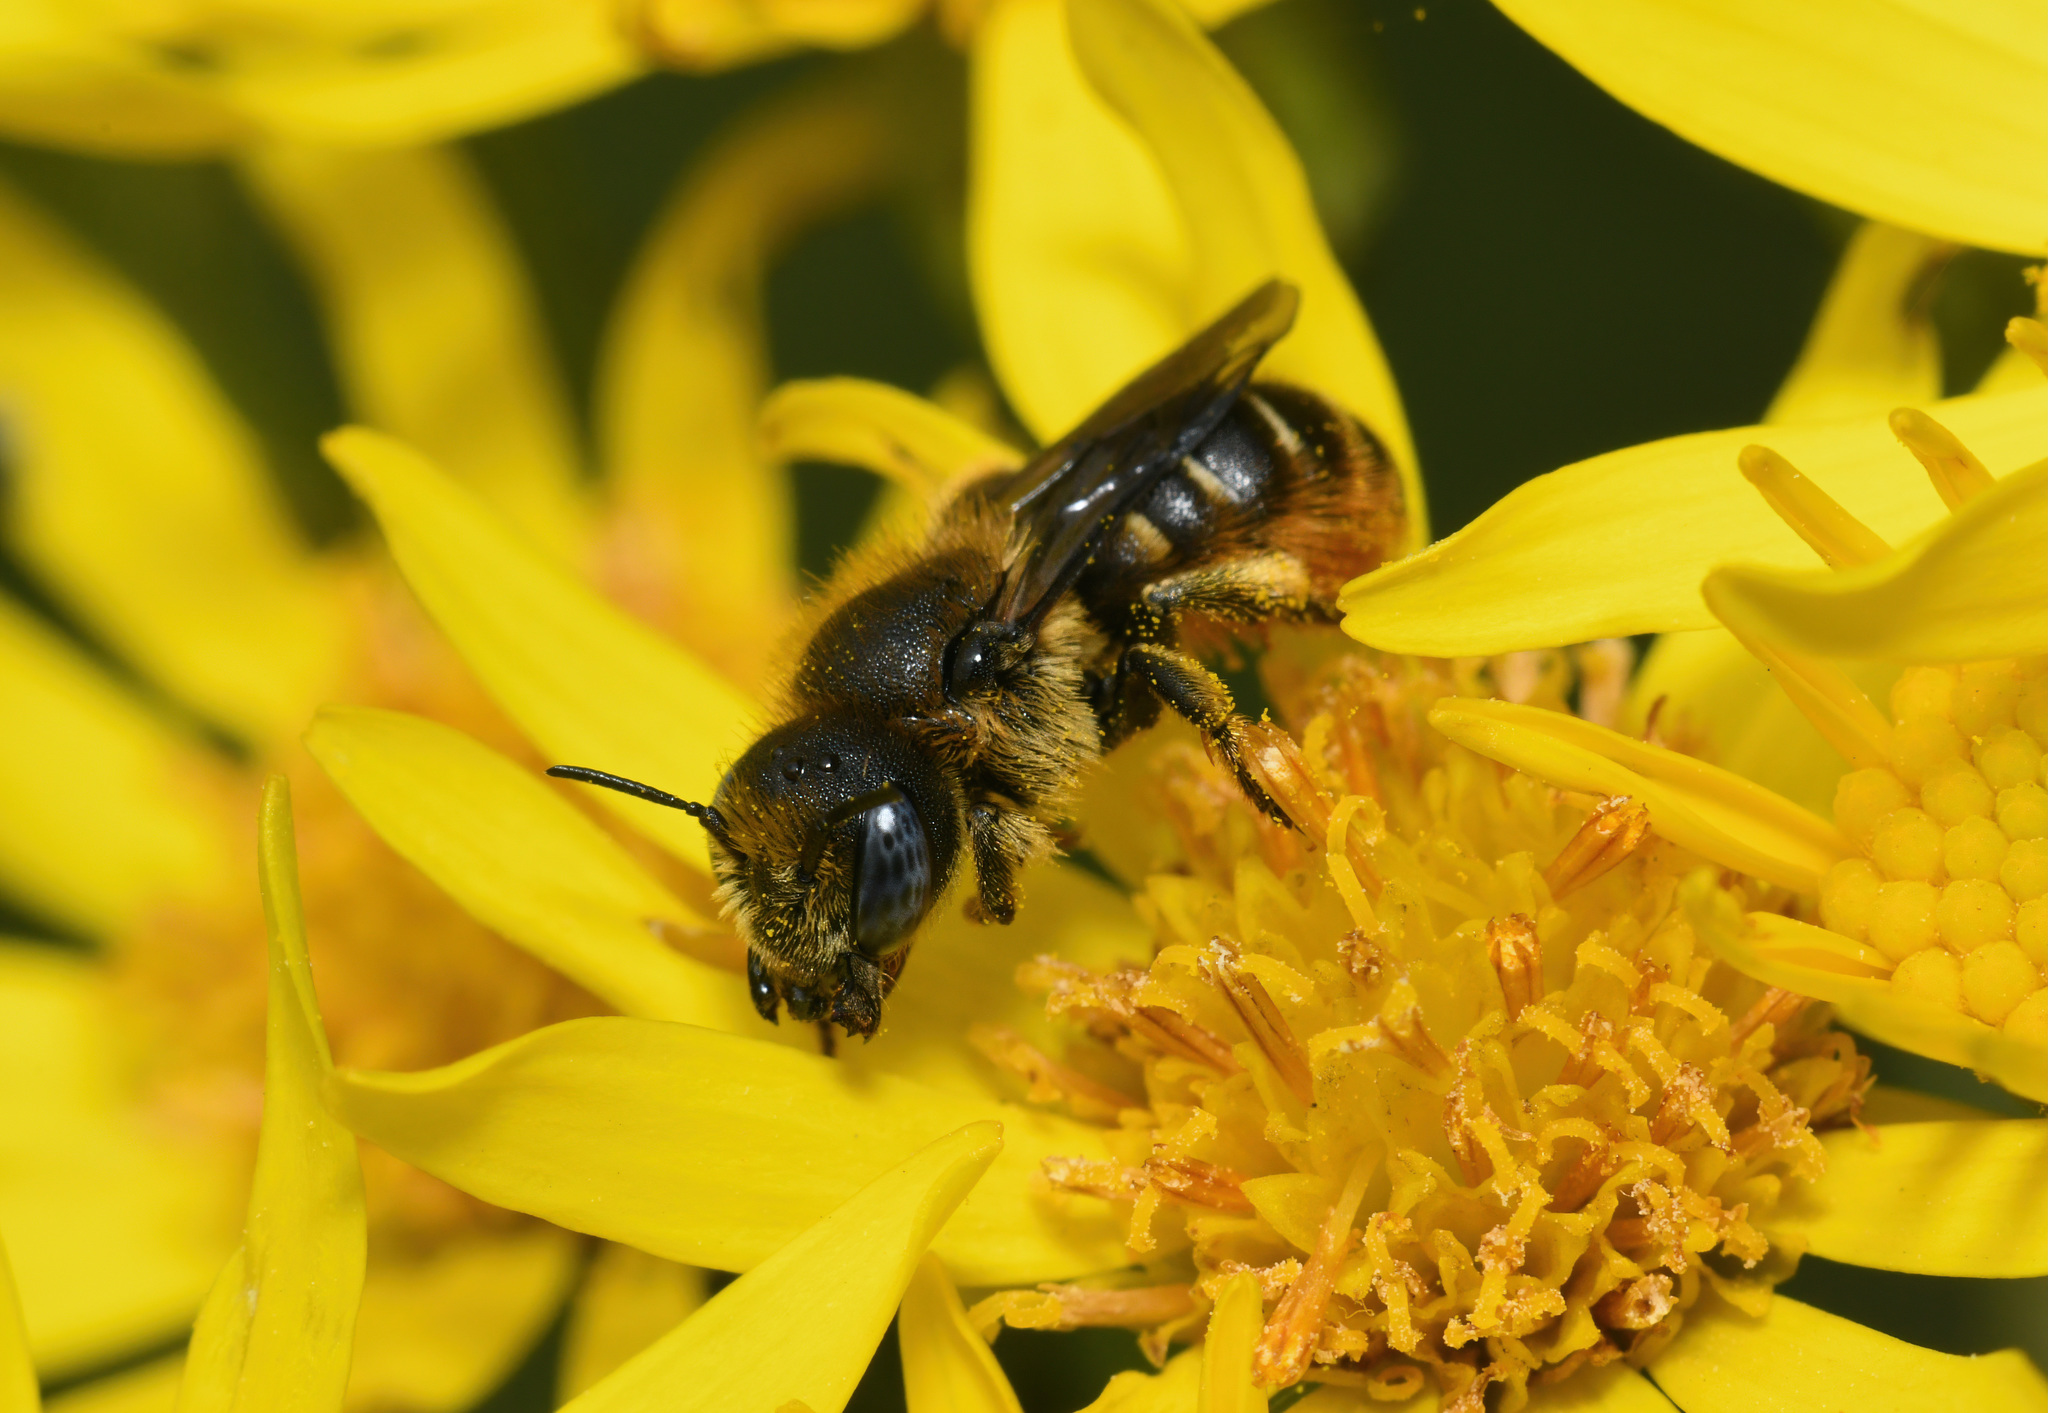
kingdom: Animalia
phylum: Arthropoda
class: Insecta
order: Hymenoptera
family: Megachilidae
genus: Osmia
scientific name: Osmia spinulosa
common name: Spined mason bee
